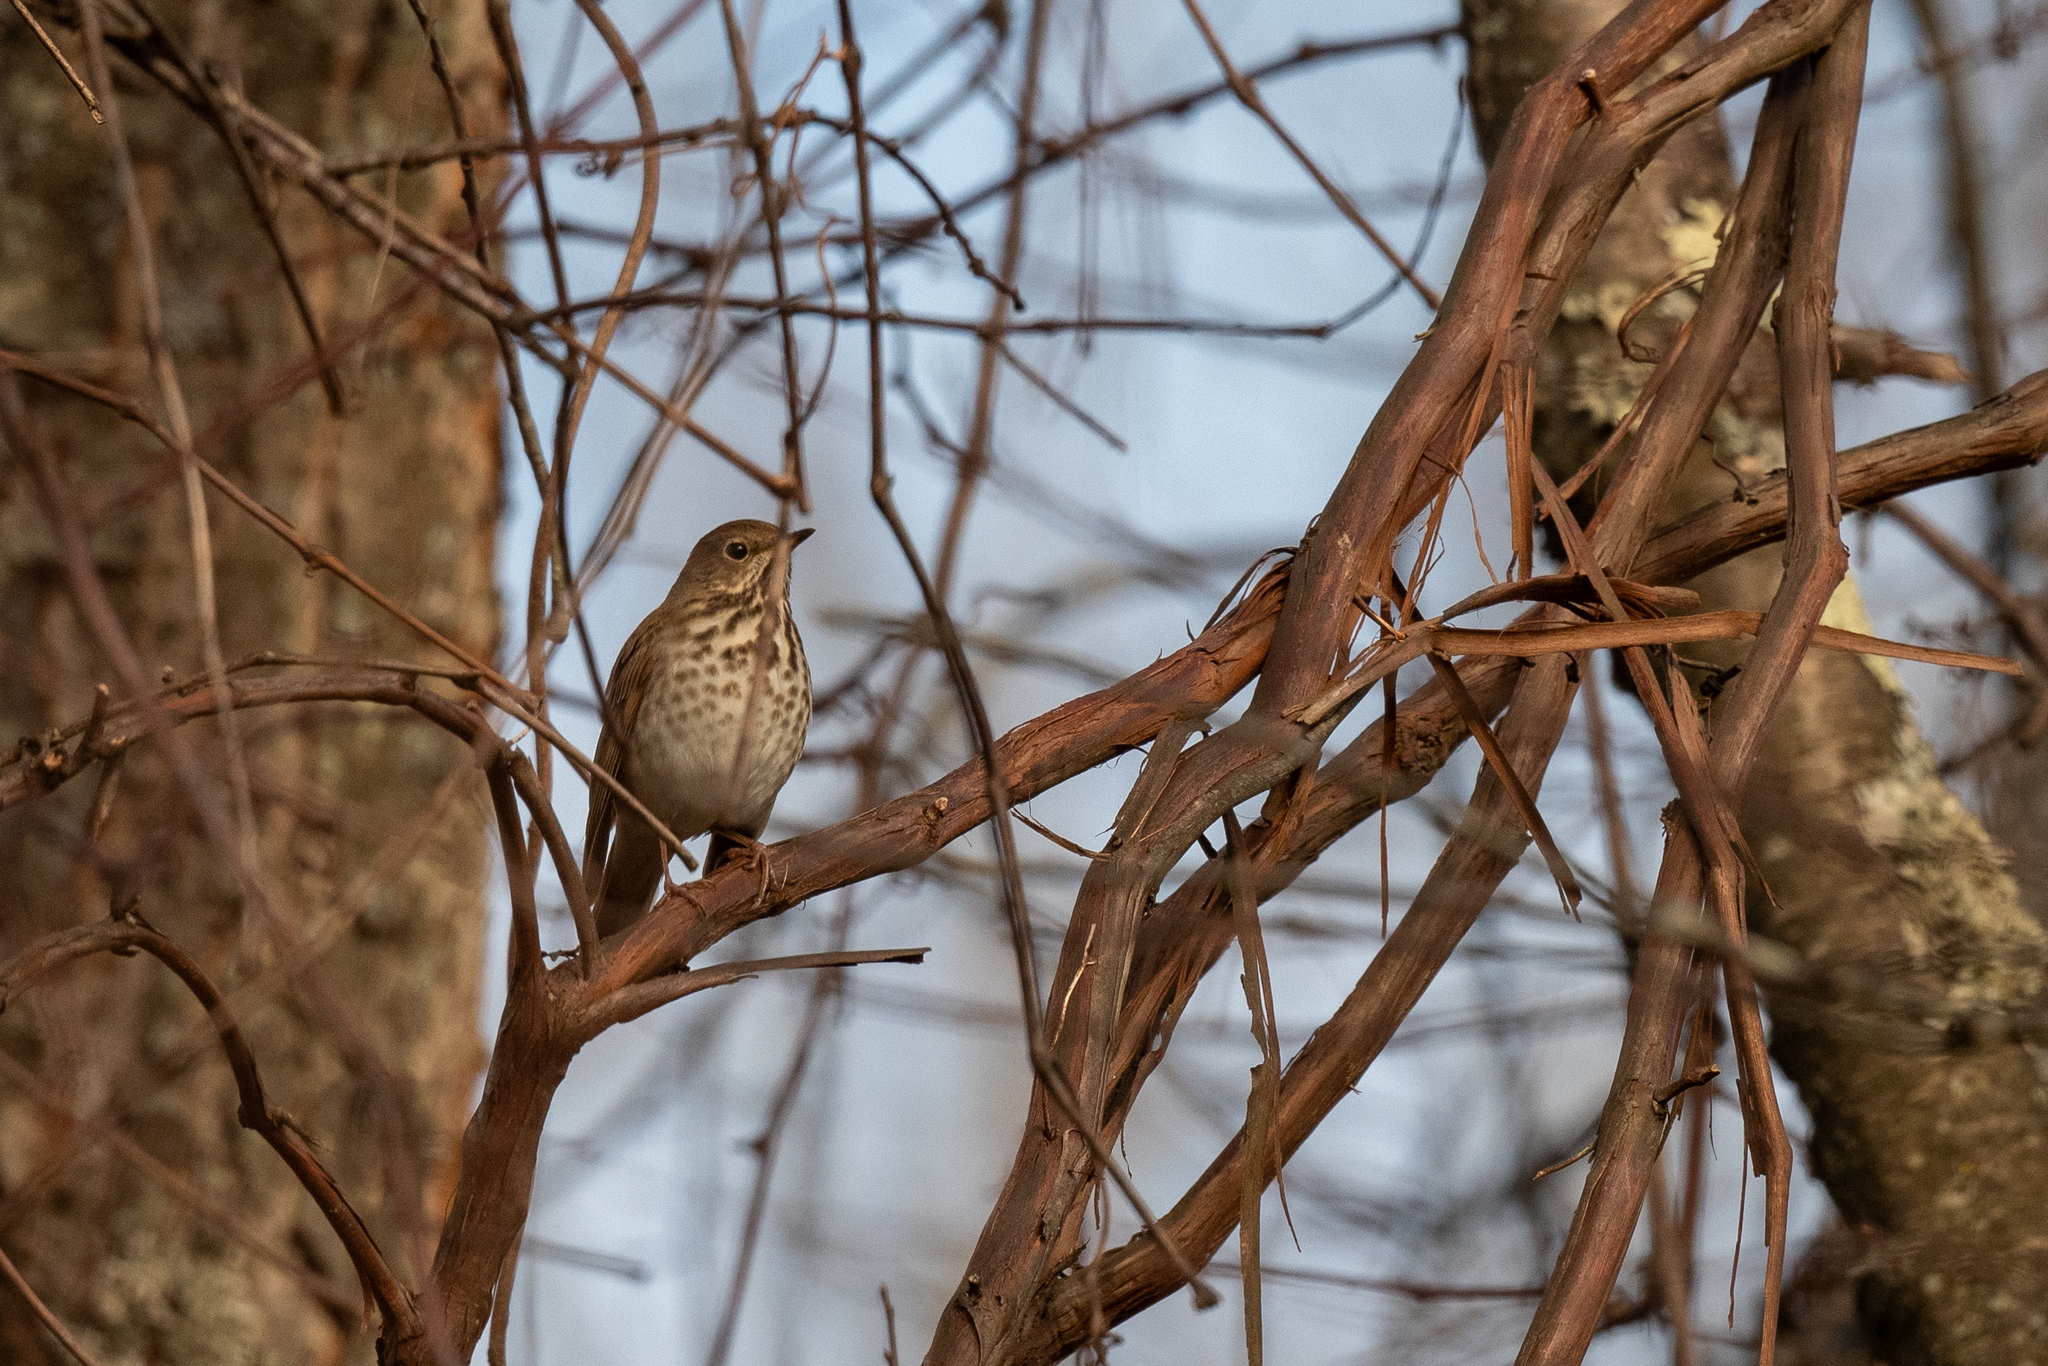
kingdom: Animalia
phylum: Chordata
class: Aves
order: Passeriformes
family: Turdidae
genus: Catharus
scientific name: Catharus guttatus
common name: Hermit thrush
